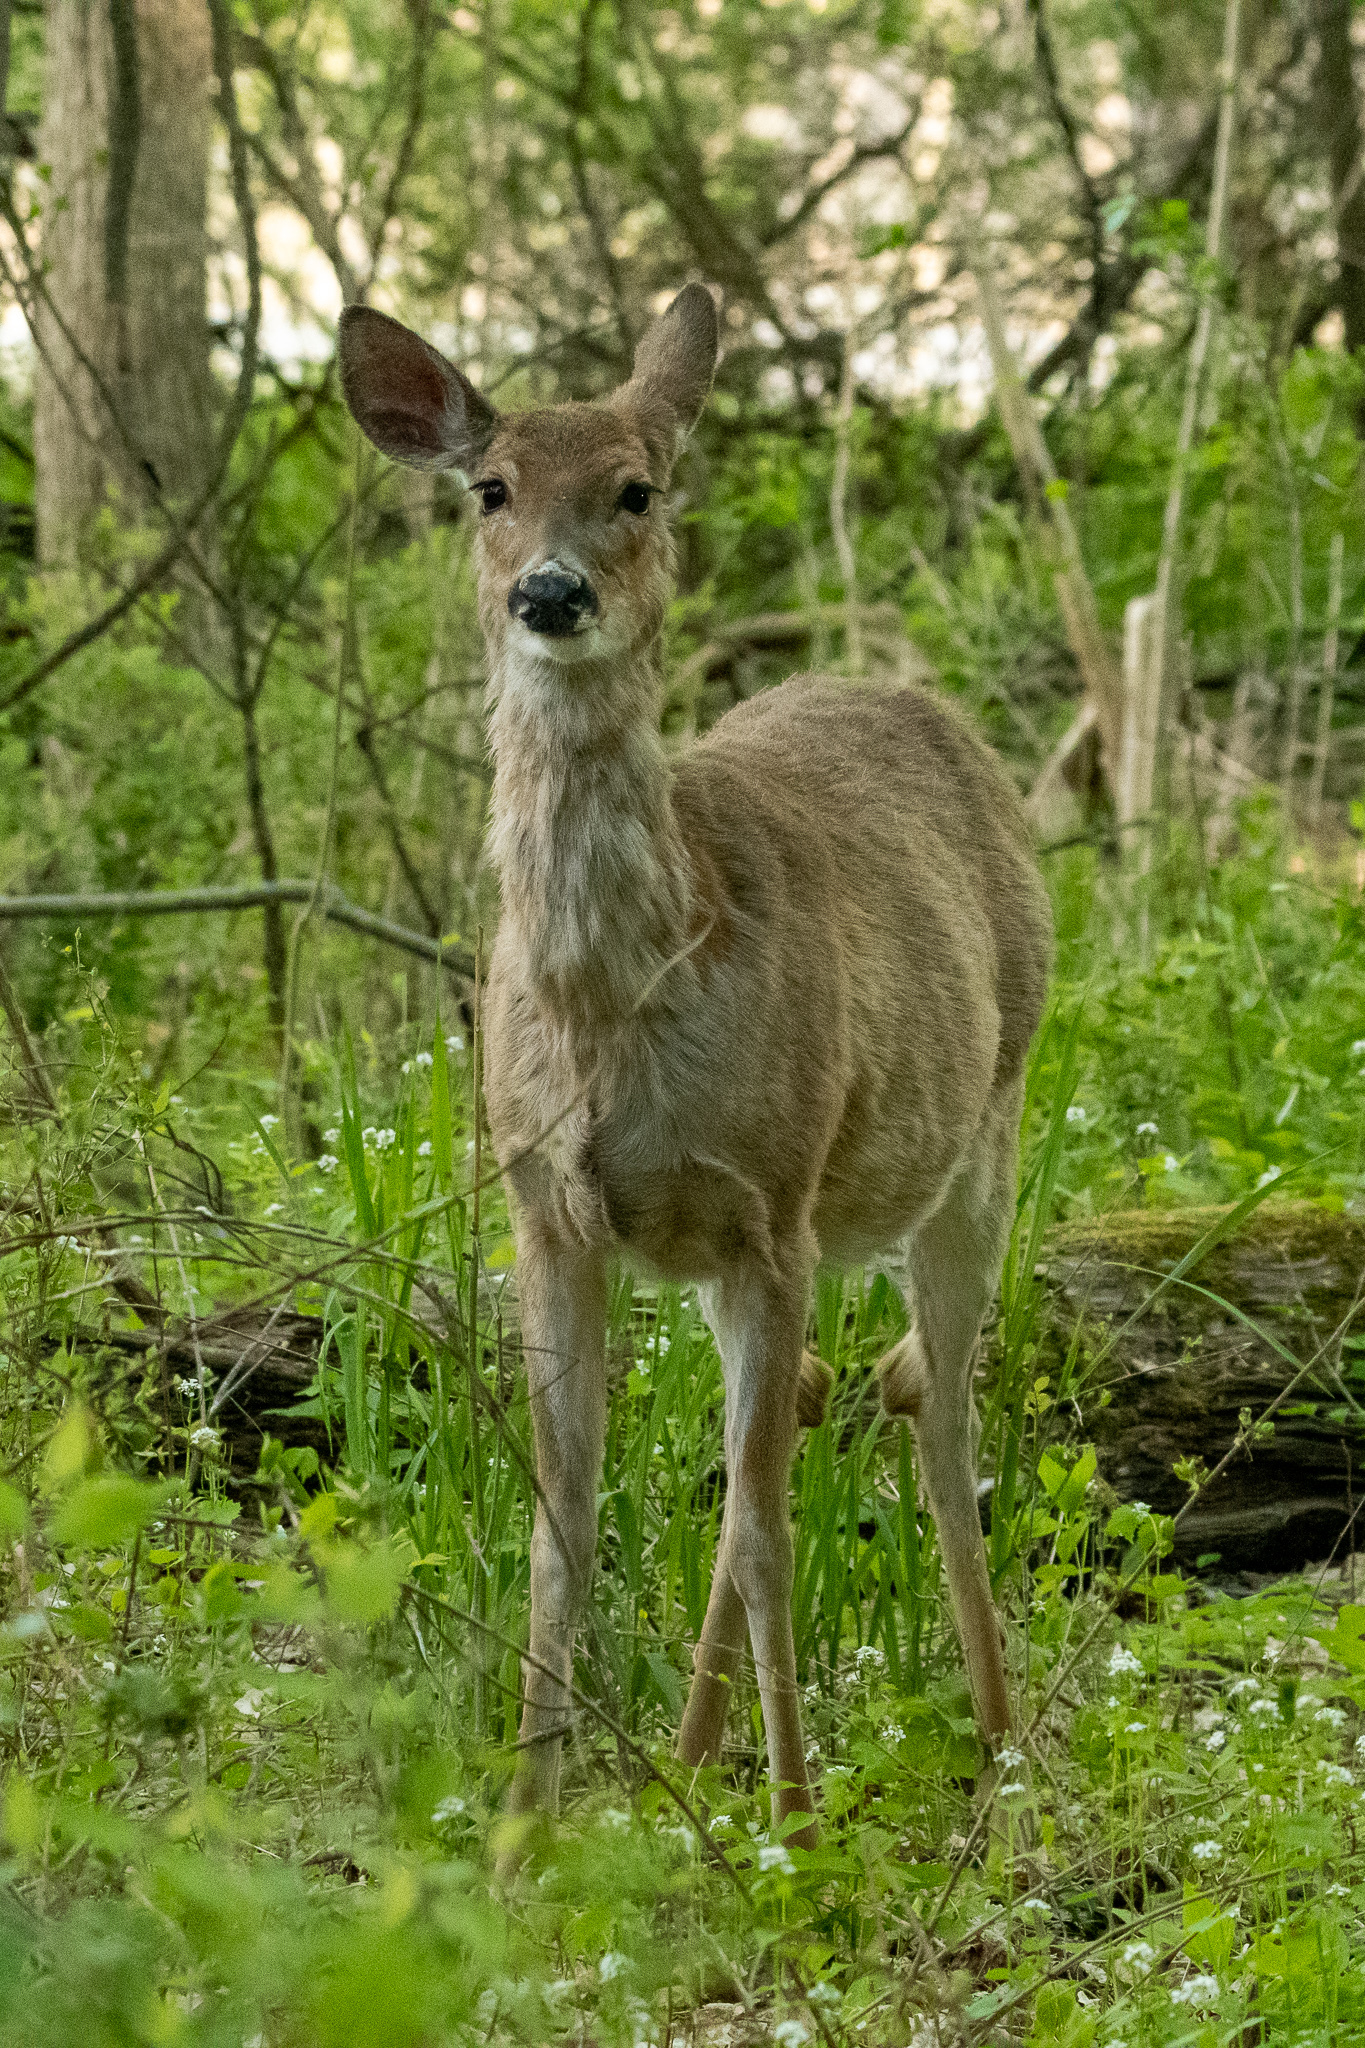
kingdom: Animalia
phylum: Chordata
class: Mammalia
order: Artiodactyla
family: Cervidae
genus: Odocoileus
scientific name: Odocoileus virginianus
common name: White-tailed deer
